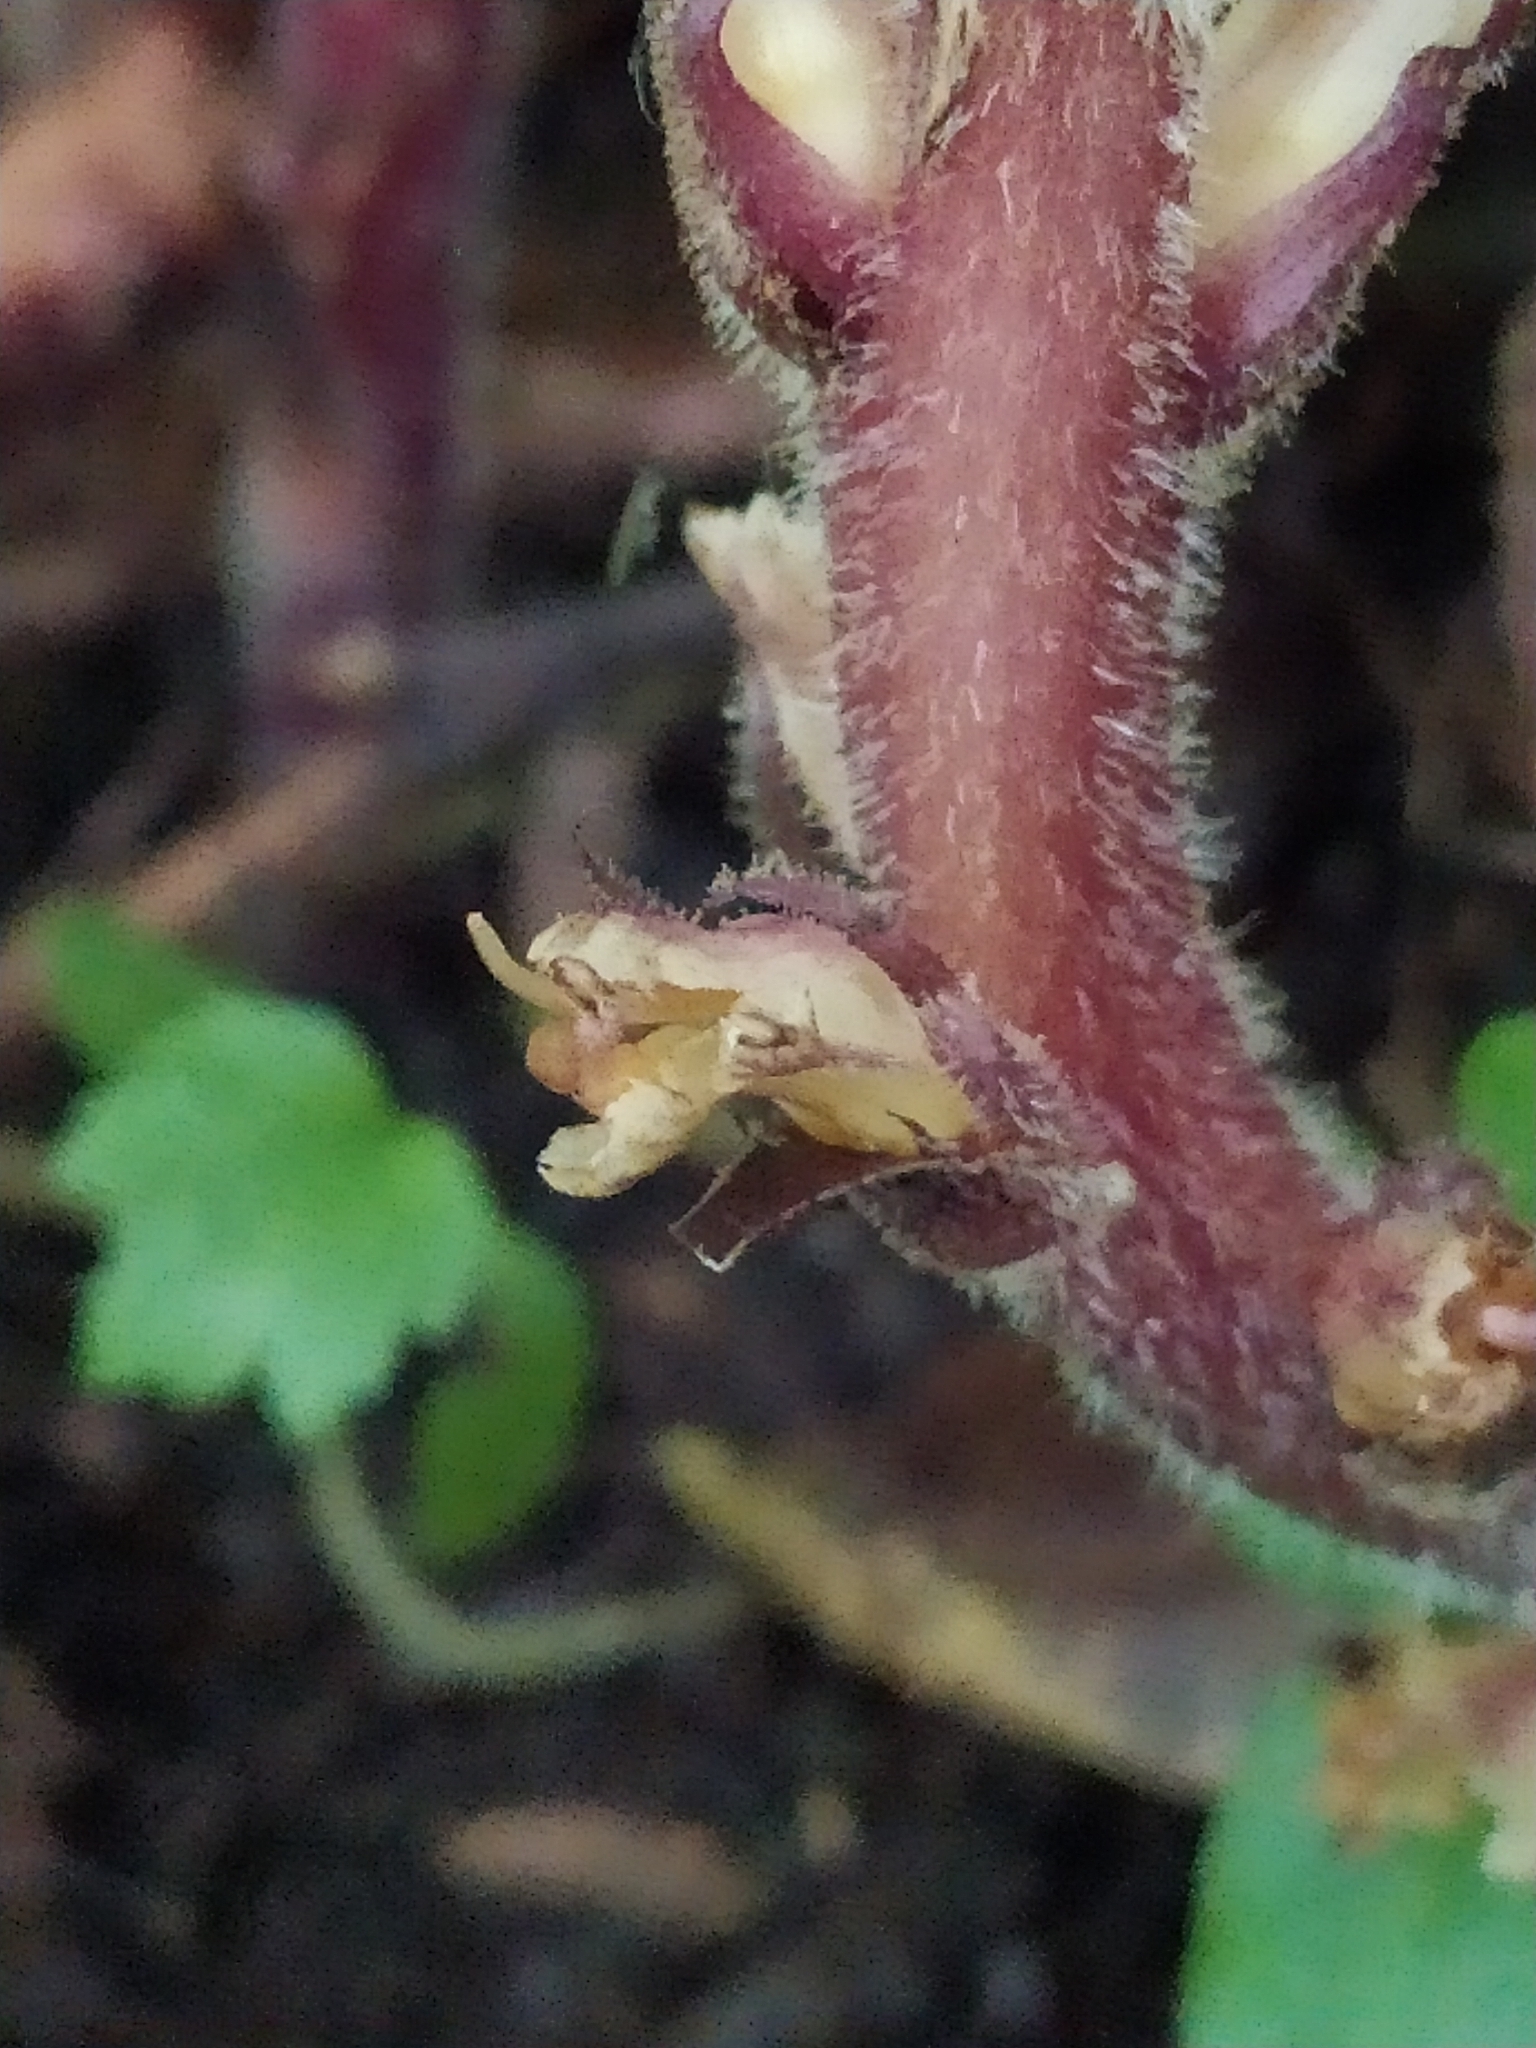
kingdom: Plantae
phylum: Tracheophyta
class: Magnoliopsida
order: Lamiales
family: Orobanchaceae
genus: Orobanche
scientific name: Orobanche hederae
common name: Ivy broomrape
